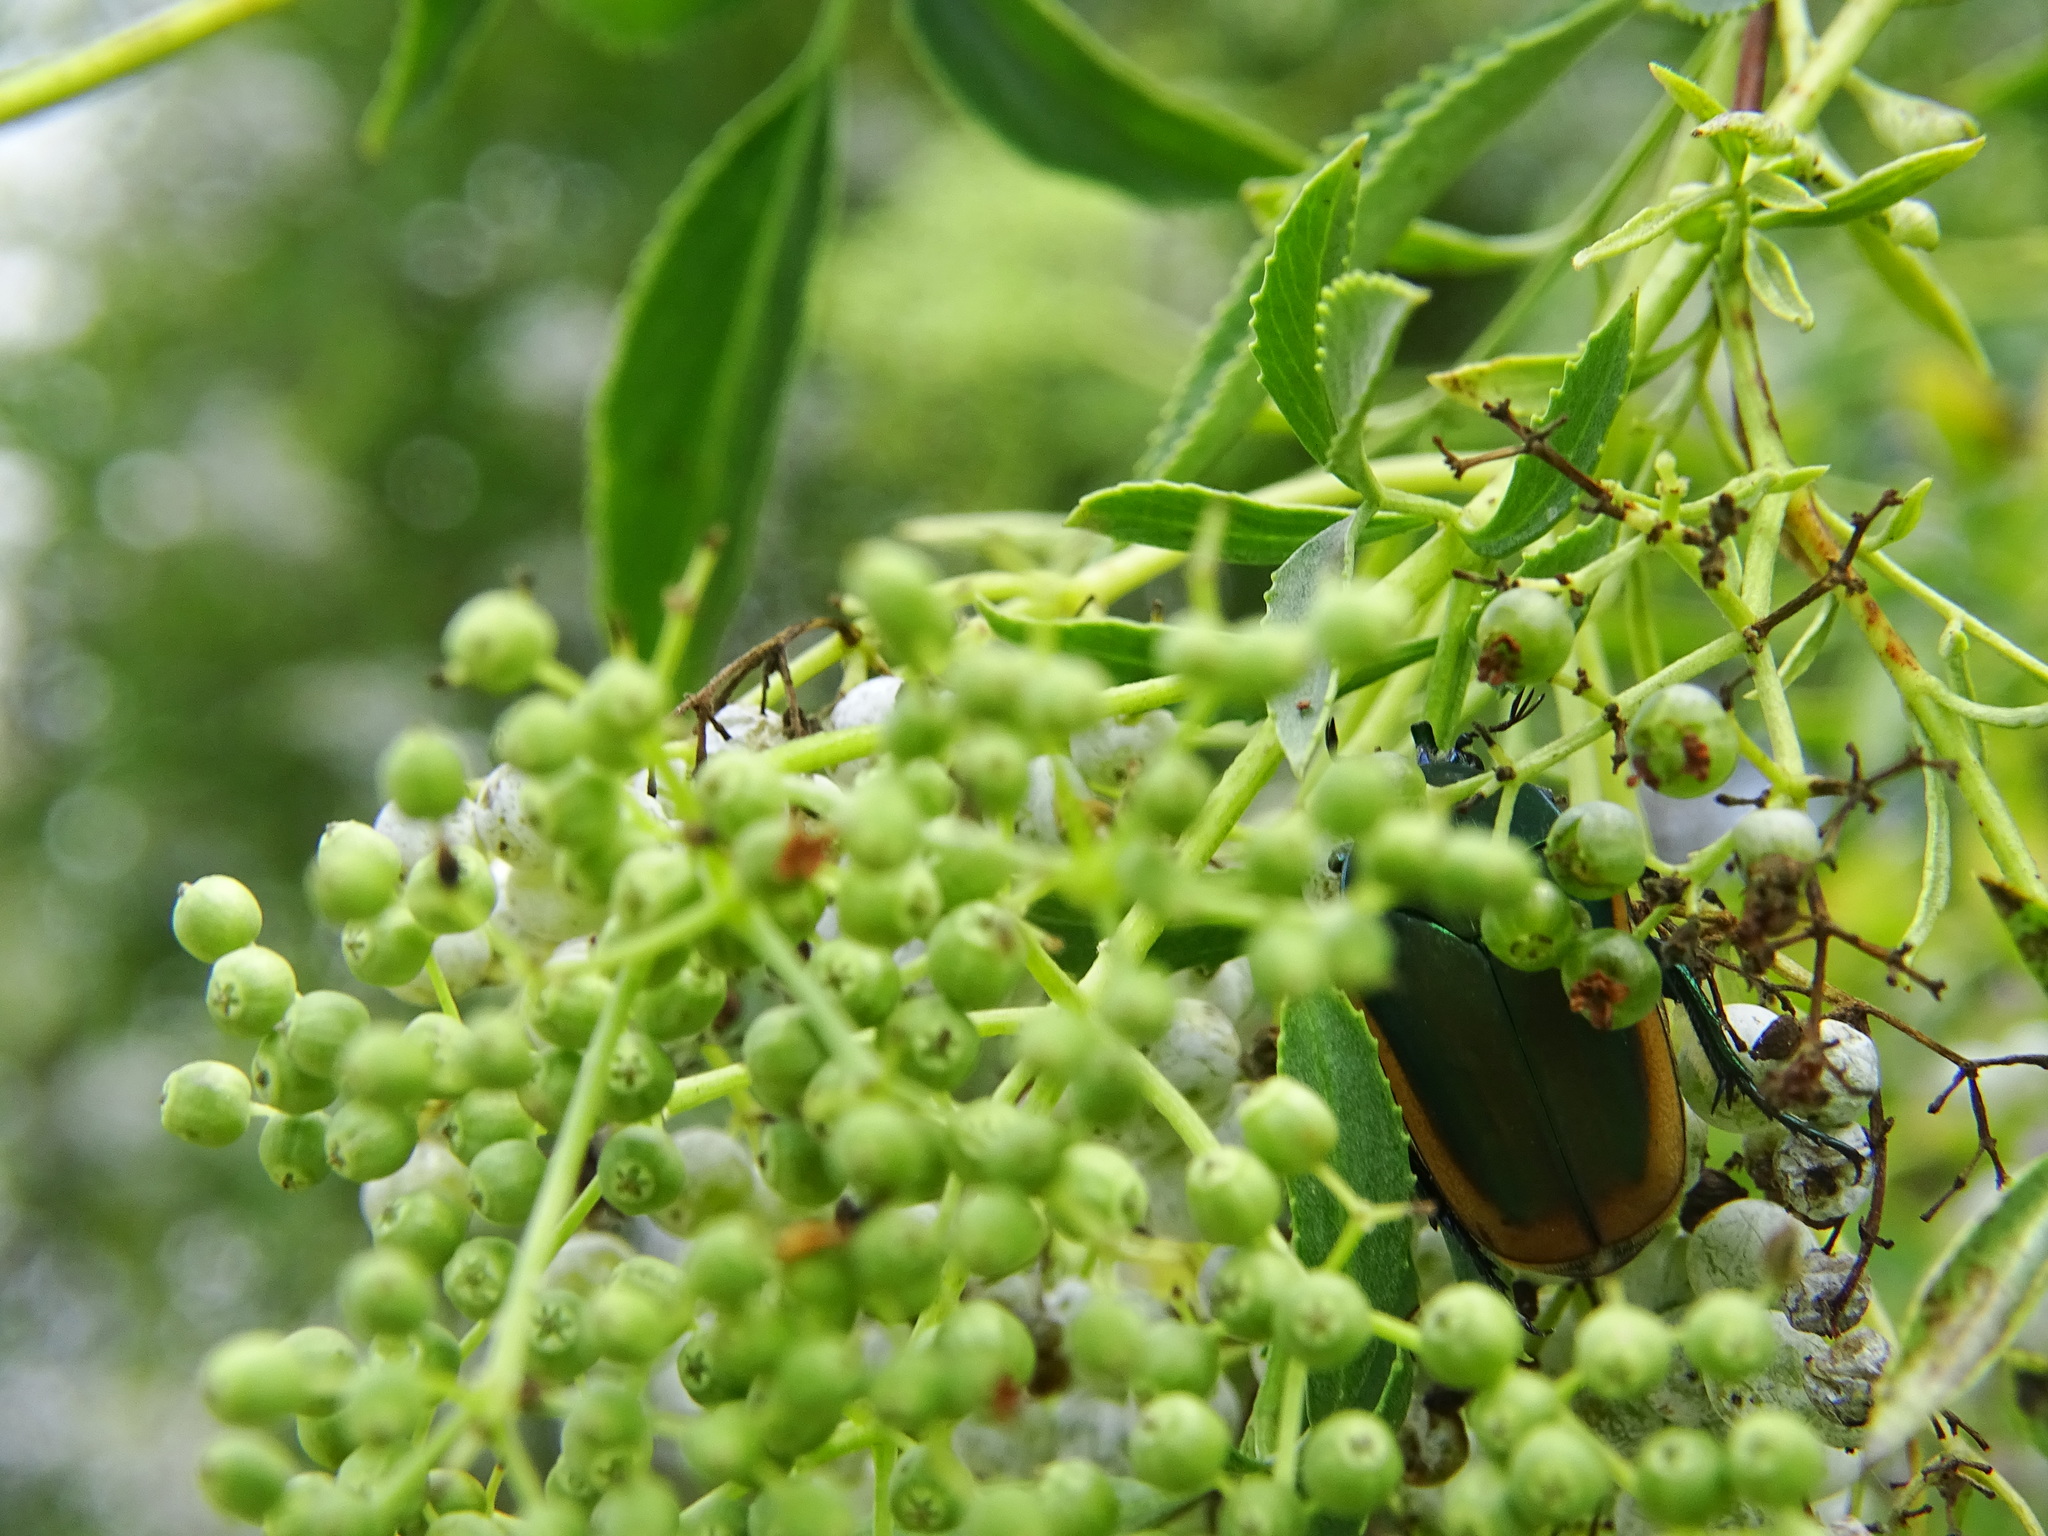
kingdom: Animalia
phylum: Arthropoda
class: Insecta
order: Coleoptera
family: Scarabaeidae
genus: Cotinis
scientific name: Cotinis mutabilis
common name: Figeater beetle
